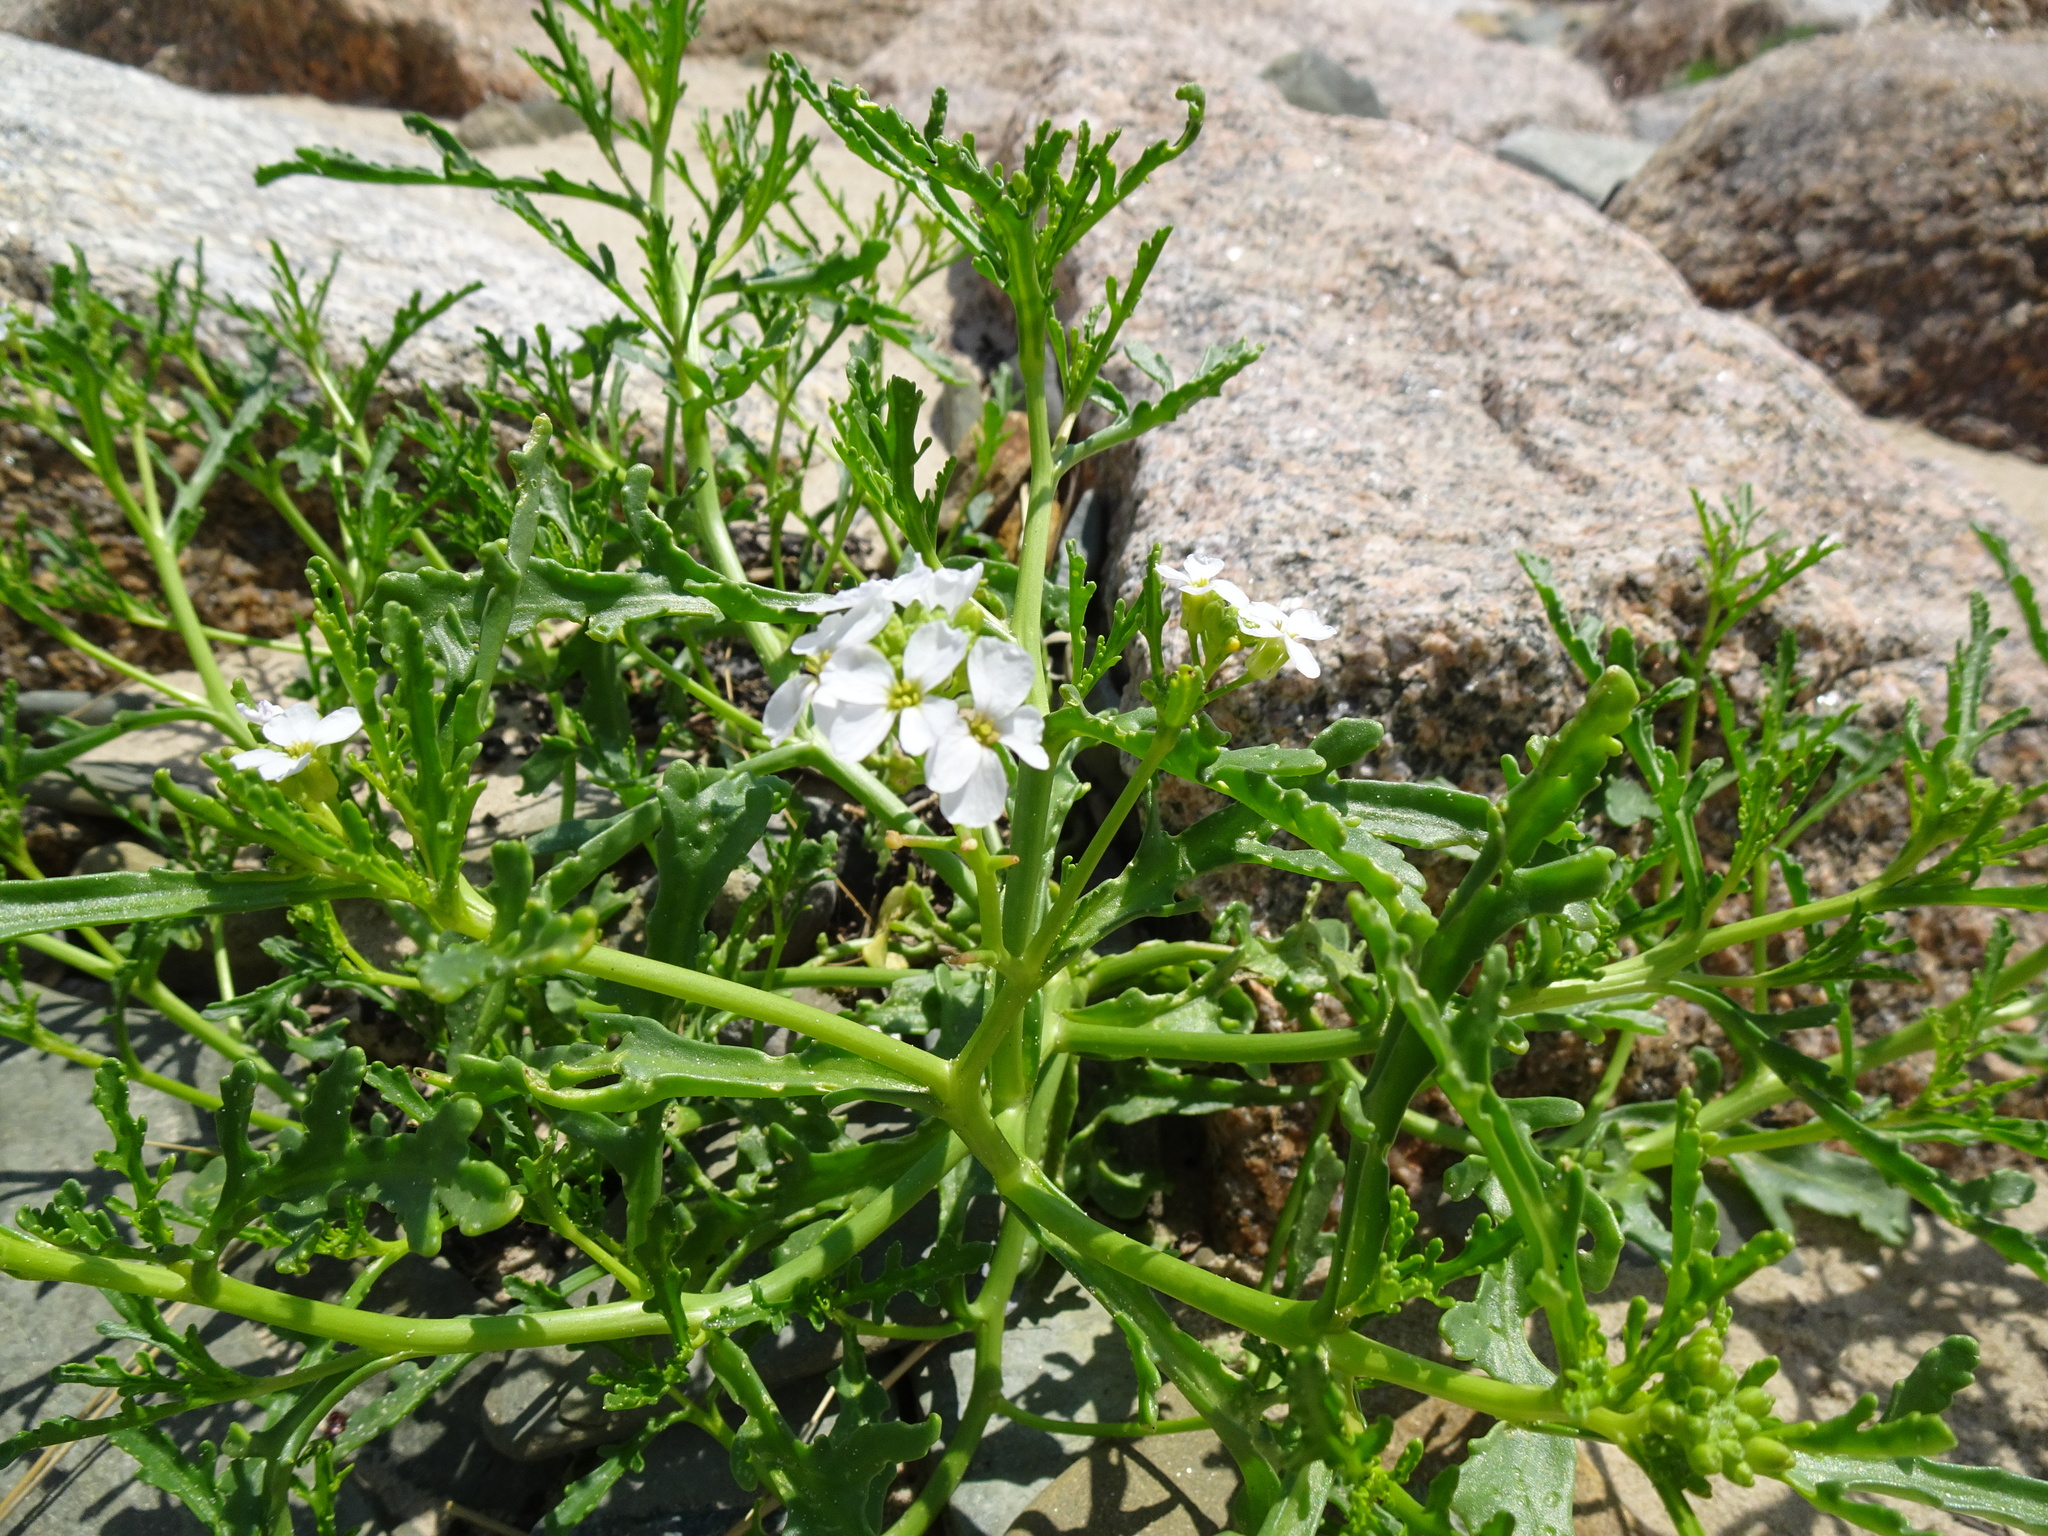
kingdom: Plantae
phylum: Tracheophyta
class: Magnoliopsida
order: Brassicales
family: Brassicaceae
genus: Cakile
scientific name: Cakile maritima
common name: Sea rocket
